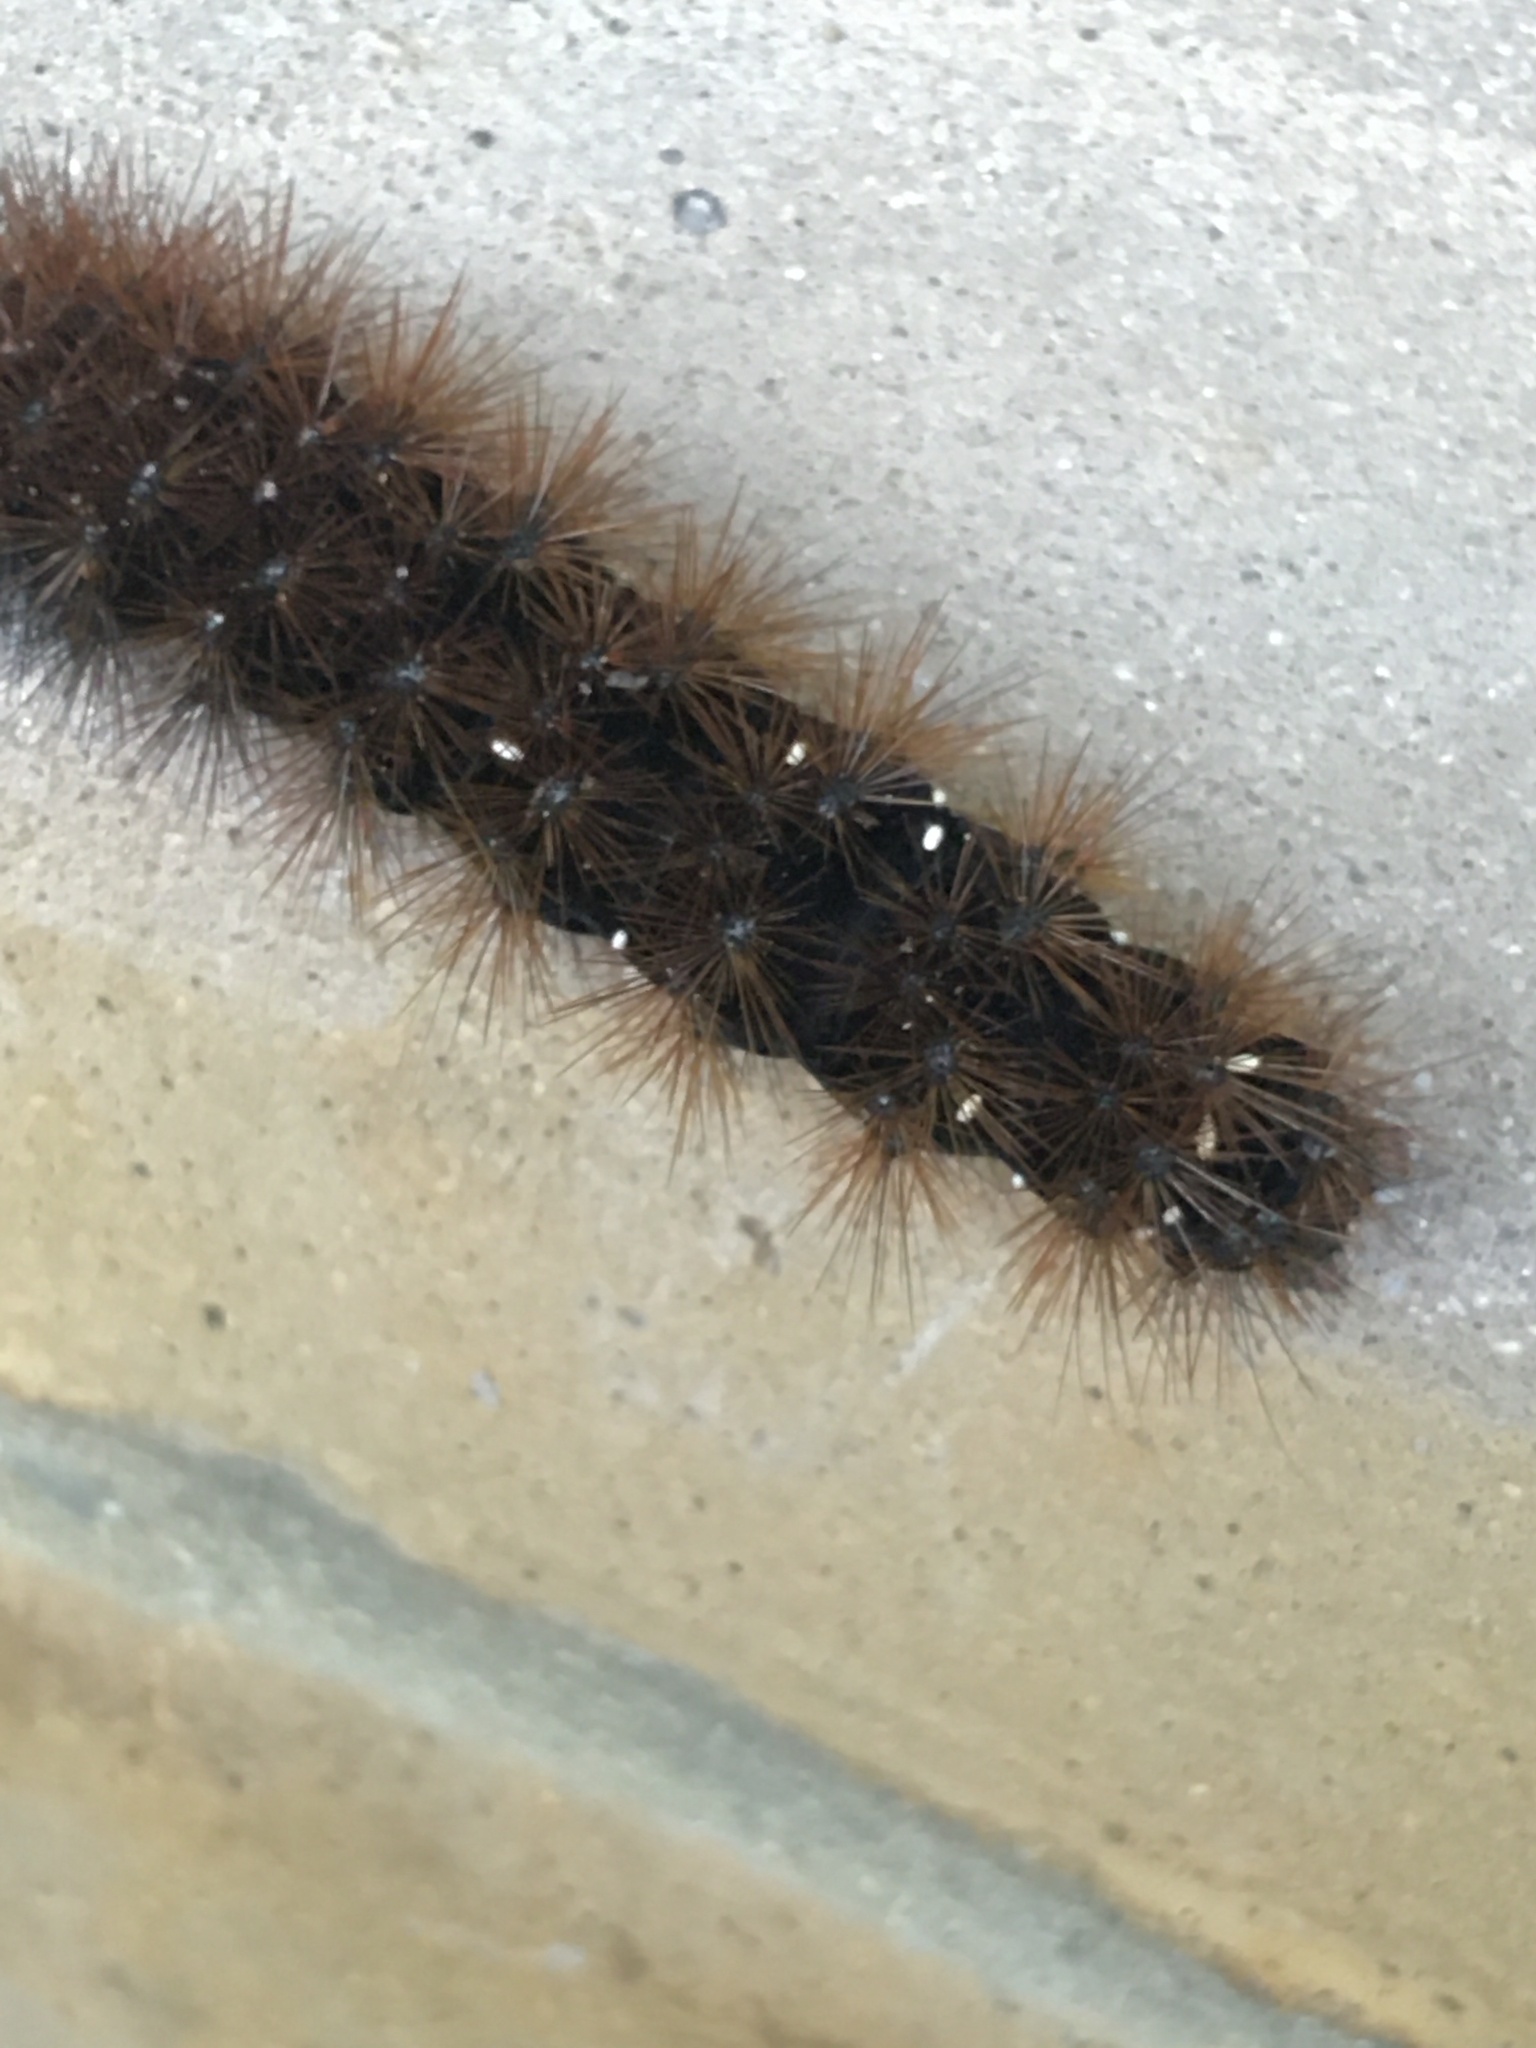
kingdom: Animalia
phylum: Arthropoda
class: Insecta
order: Lepidoptera
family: Erebidae
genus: Rhodogastria
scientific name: Rhodogastria amasis
